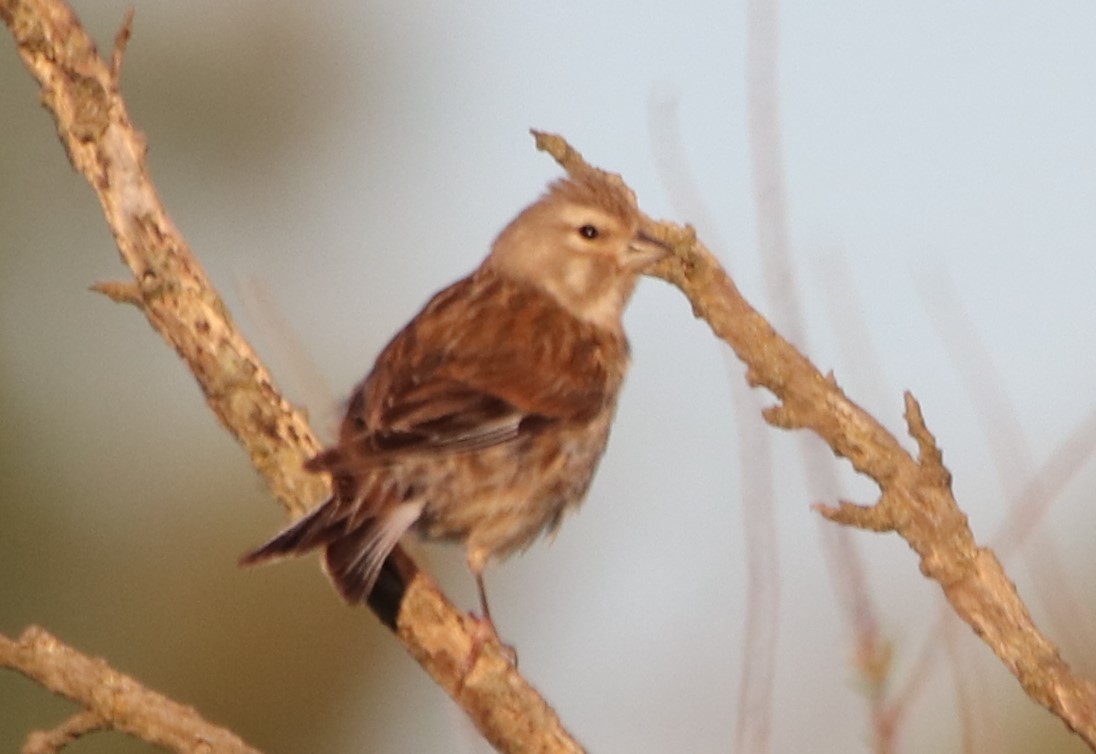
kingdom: Animalia
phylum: Chordata
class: Aves
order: Passeriformes
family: Fringillidae
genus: Linaria
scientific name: Linaria cannabina
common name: Common linnet
